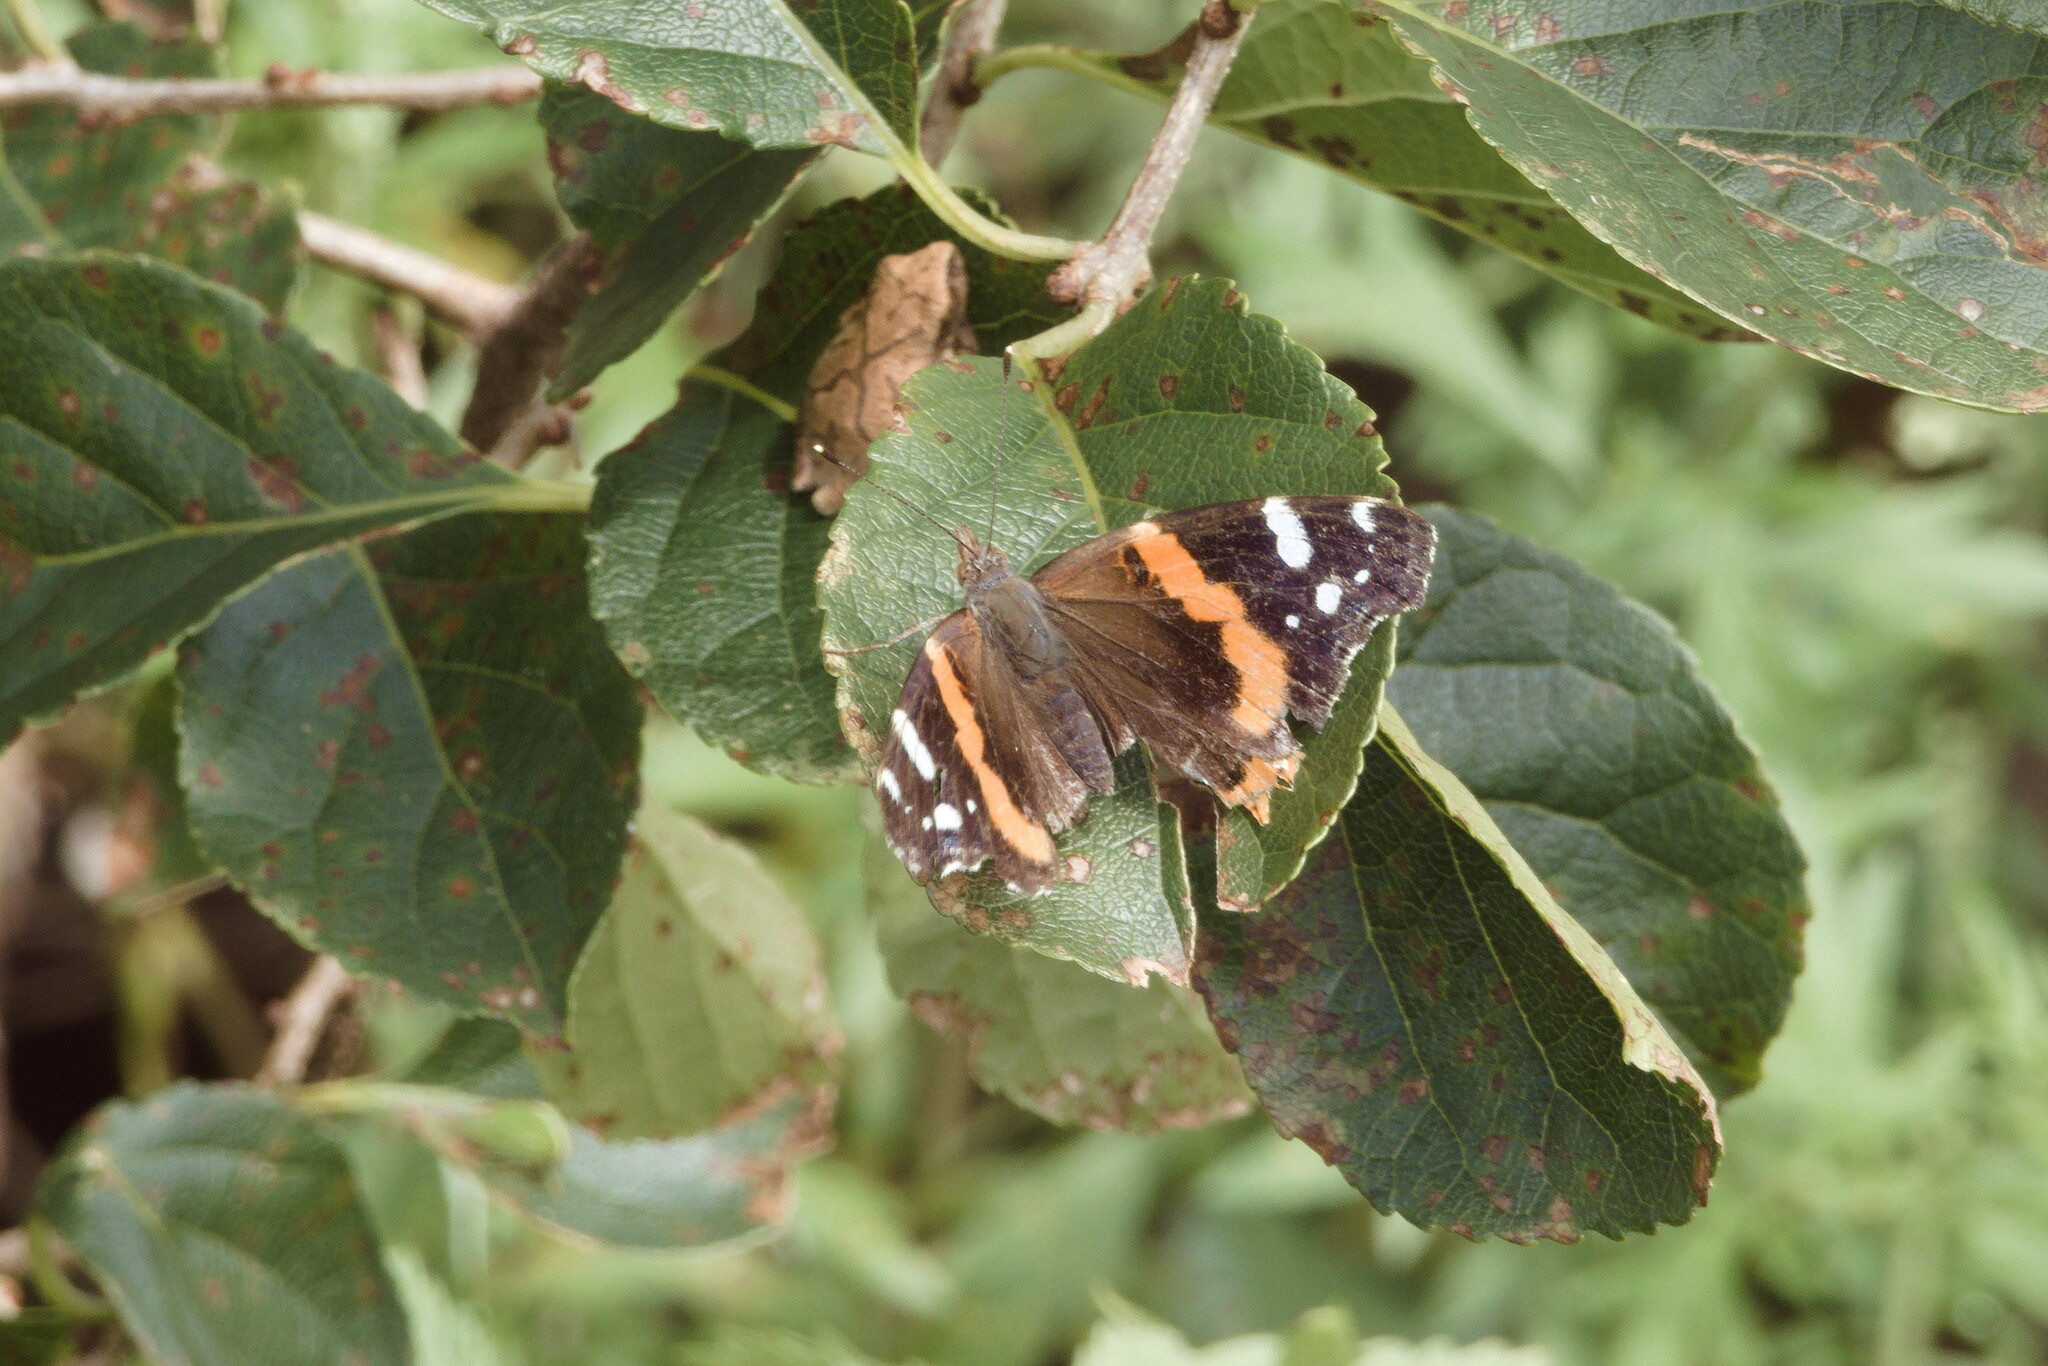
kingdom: Animalia
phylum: Arthropoda
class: Insecta
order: Lepidoptera
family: Nymphalidae
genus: Vanessa
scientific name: Vanessa atalanta
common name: Red admiral
